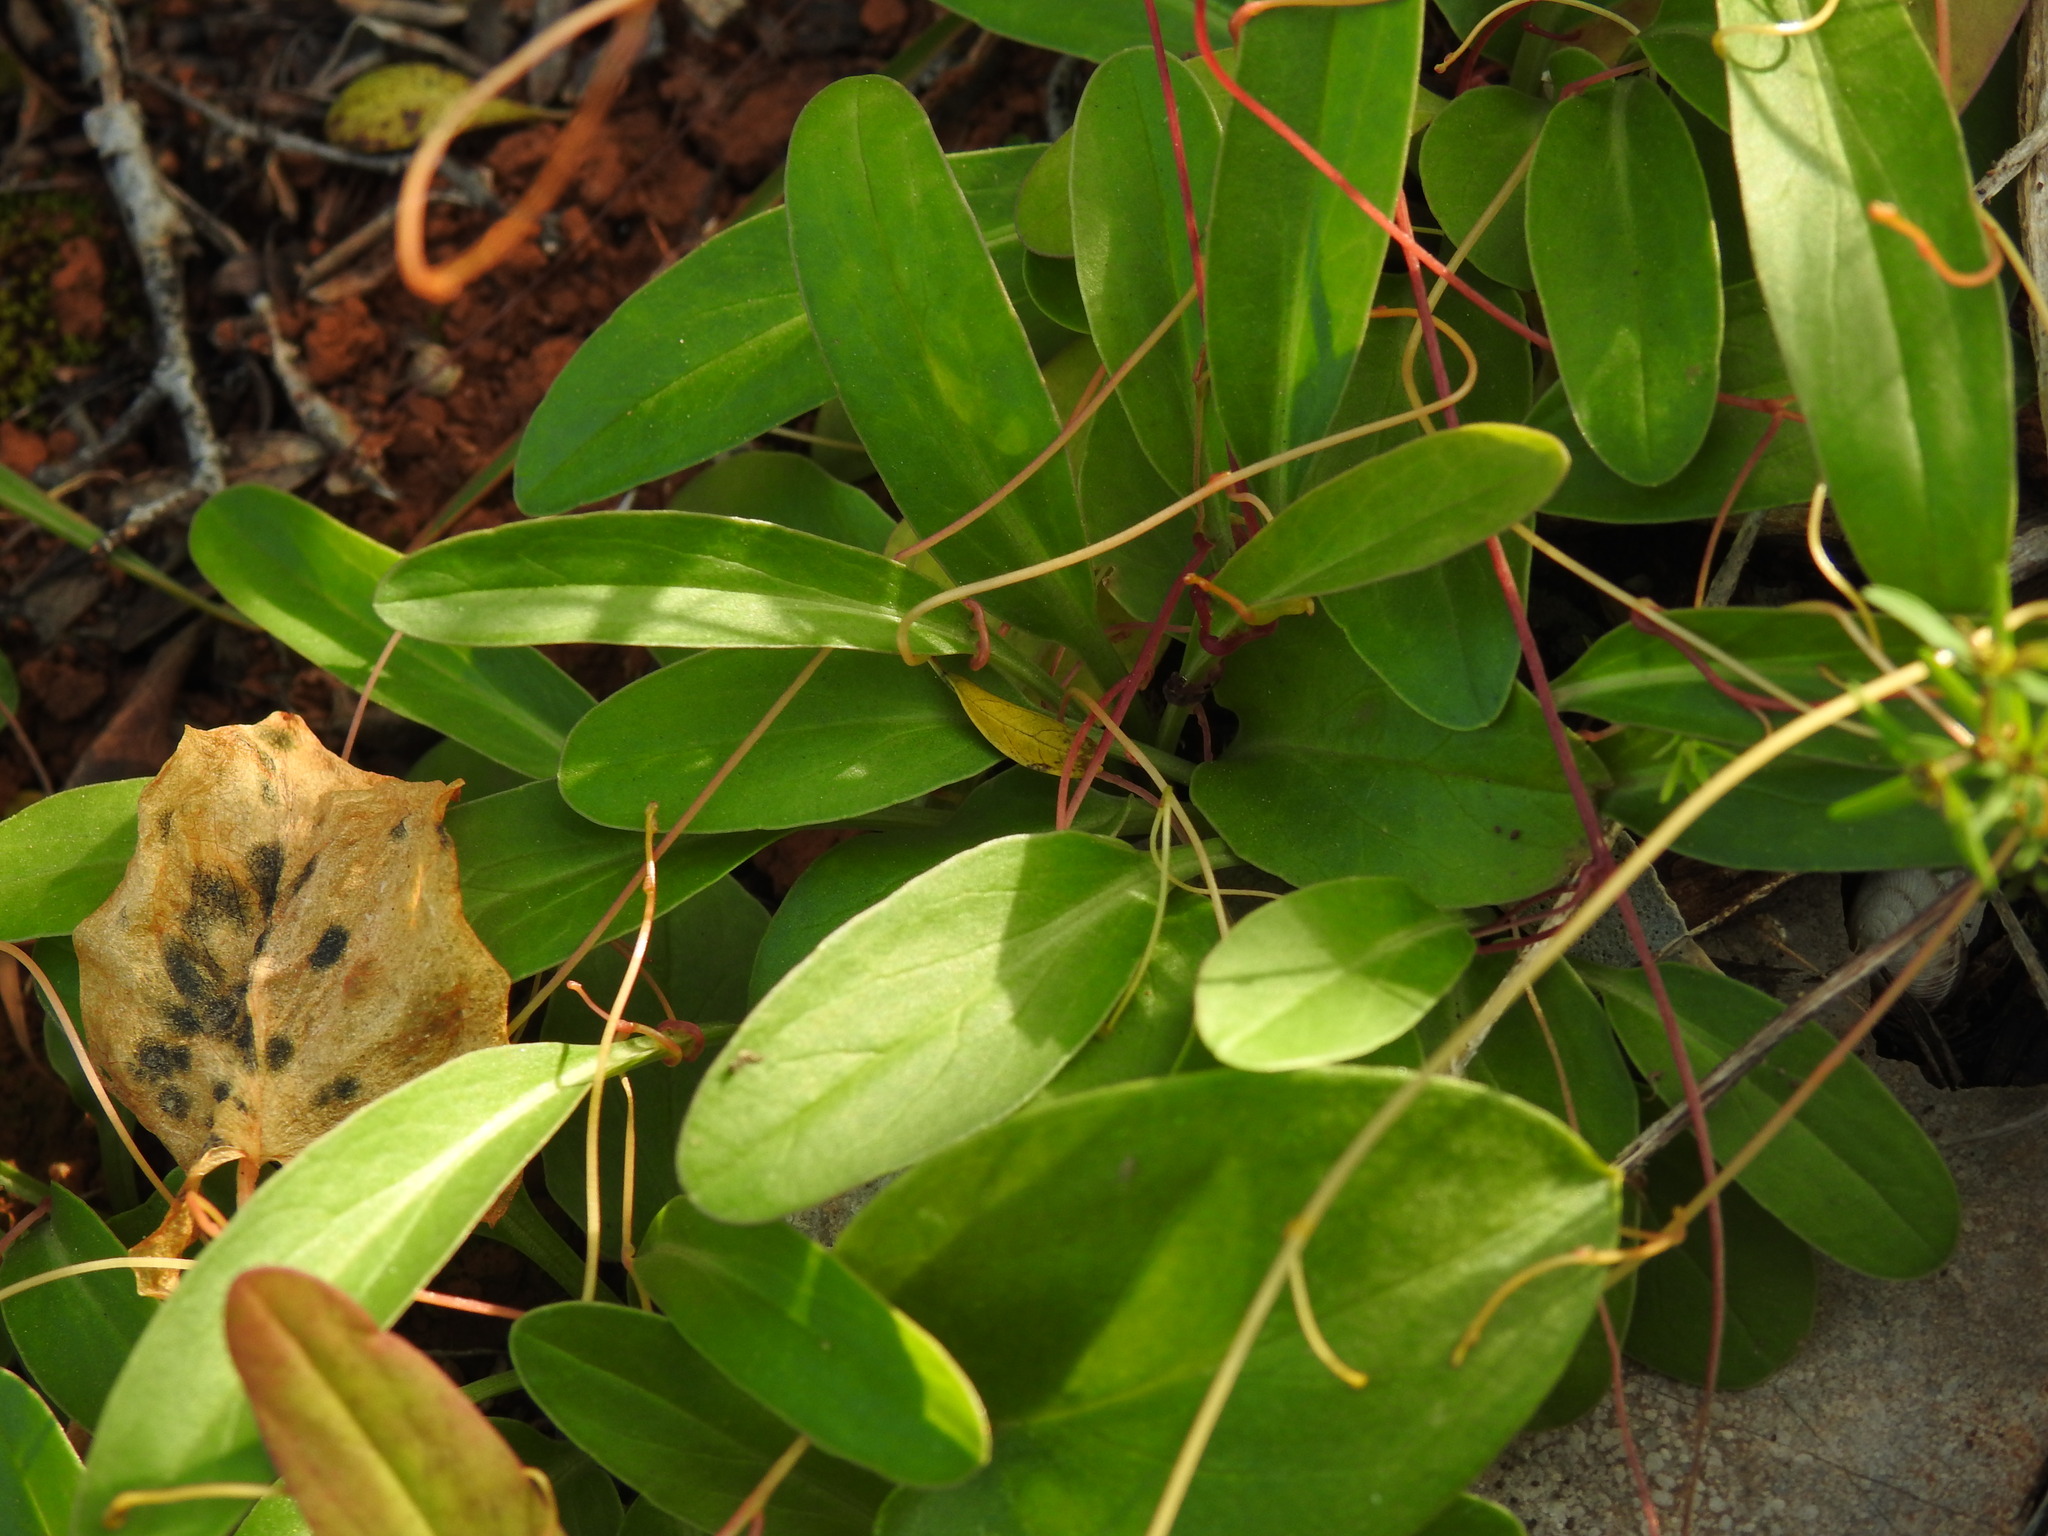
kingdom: Plantae
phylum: Tracheophyta
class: Magnoliopsida
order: Dipsacales
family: Caprifoliaceae
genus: Valeriana
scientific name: Valeriana tuberosa
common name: Tuberous valerian
